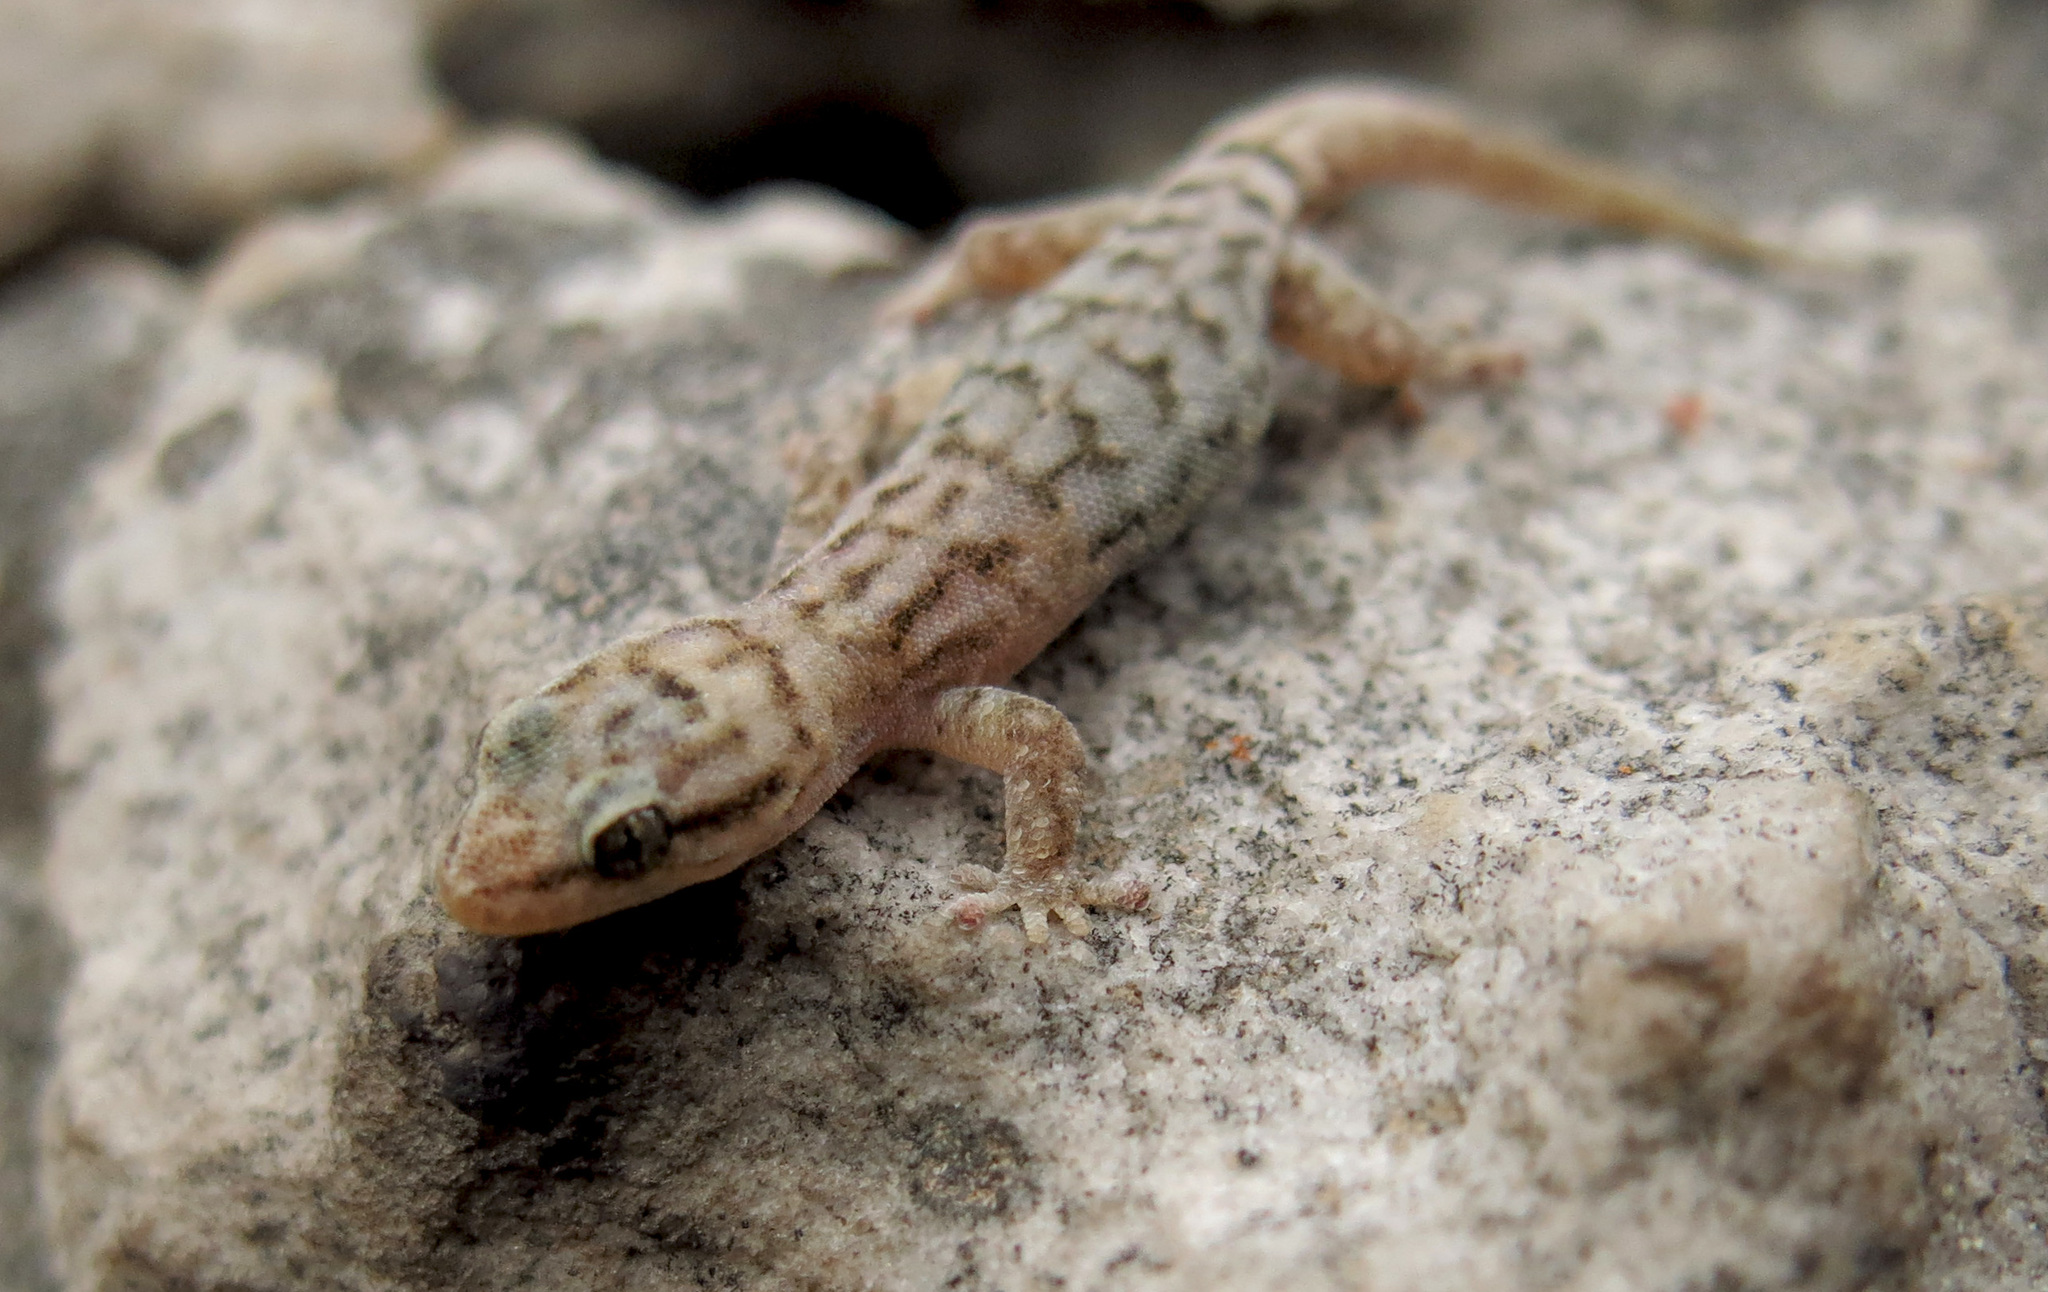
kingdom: Animalia
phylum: Chordata
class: Squamata
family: Gekkonidae
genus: Goggia
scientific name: Goggia essexi
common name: Essex’s dwarf leaf-toed gecko
